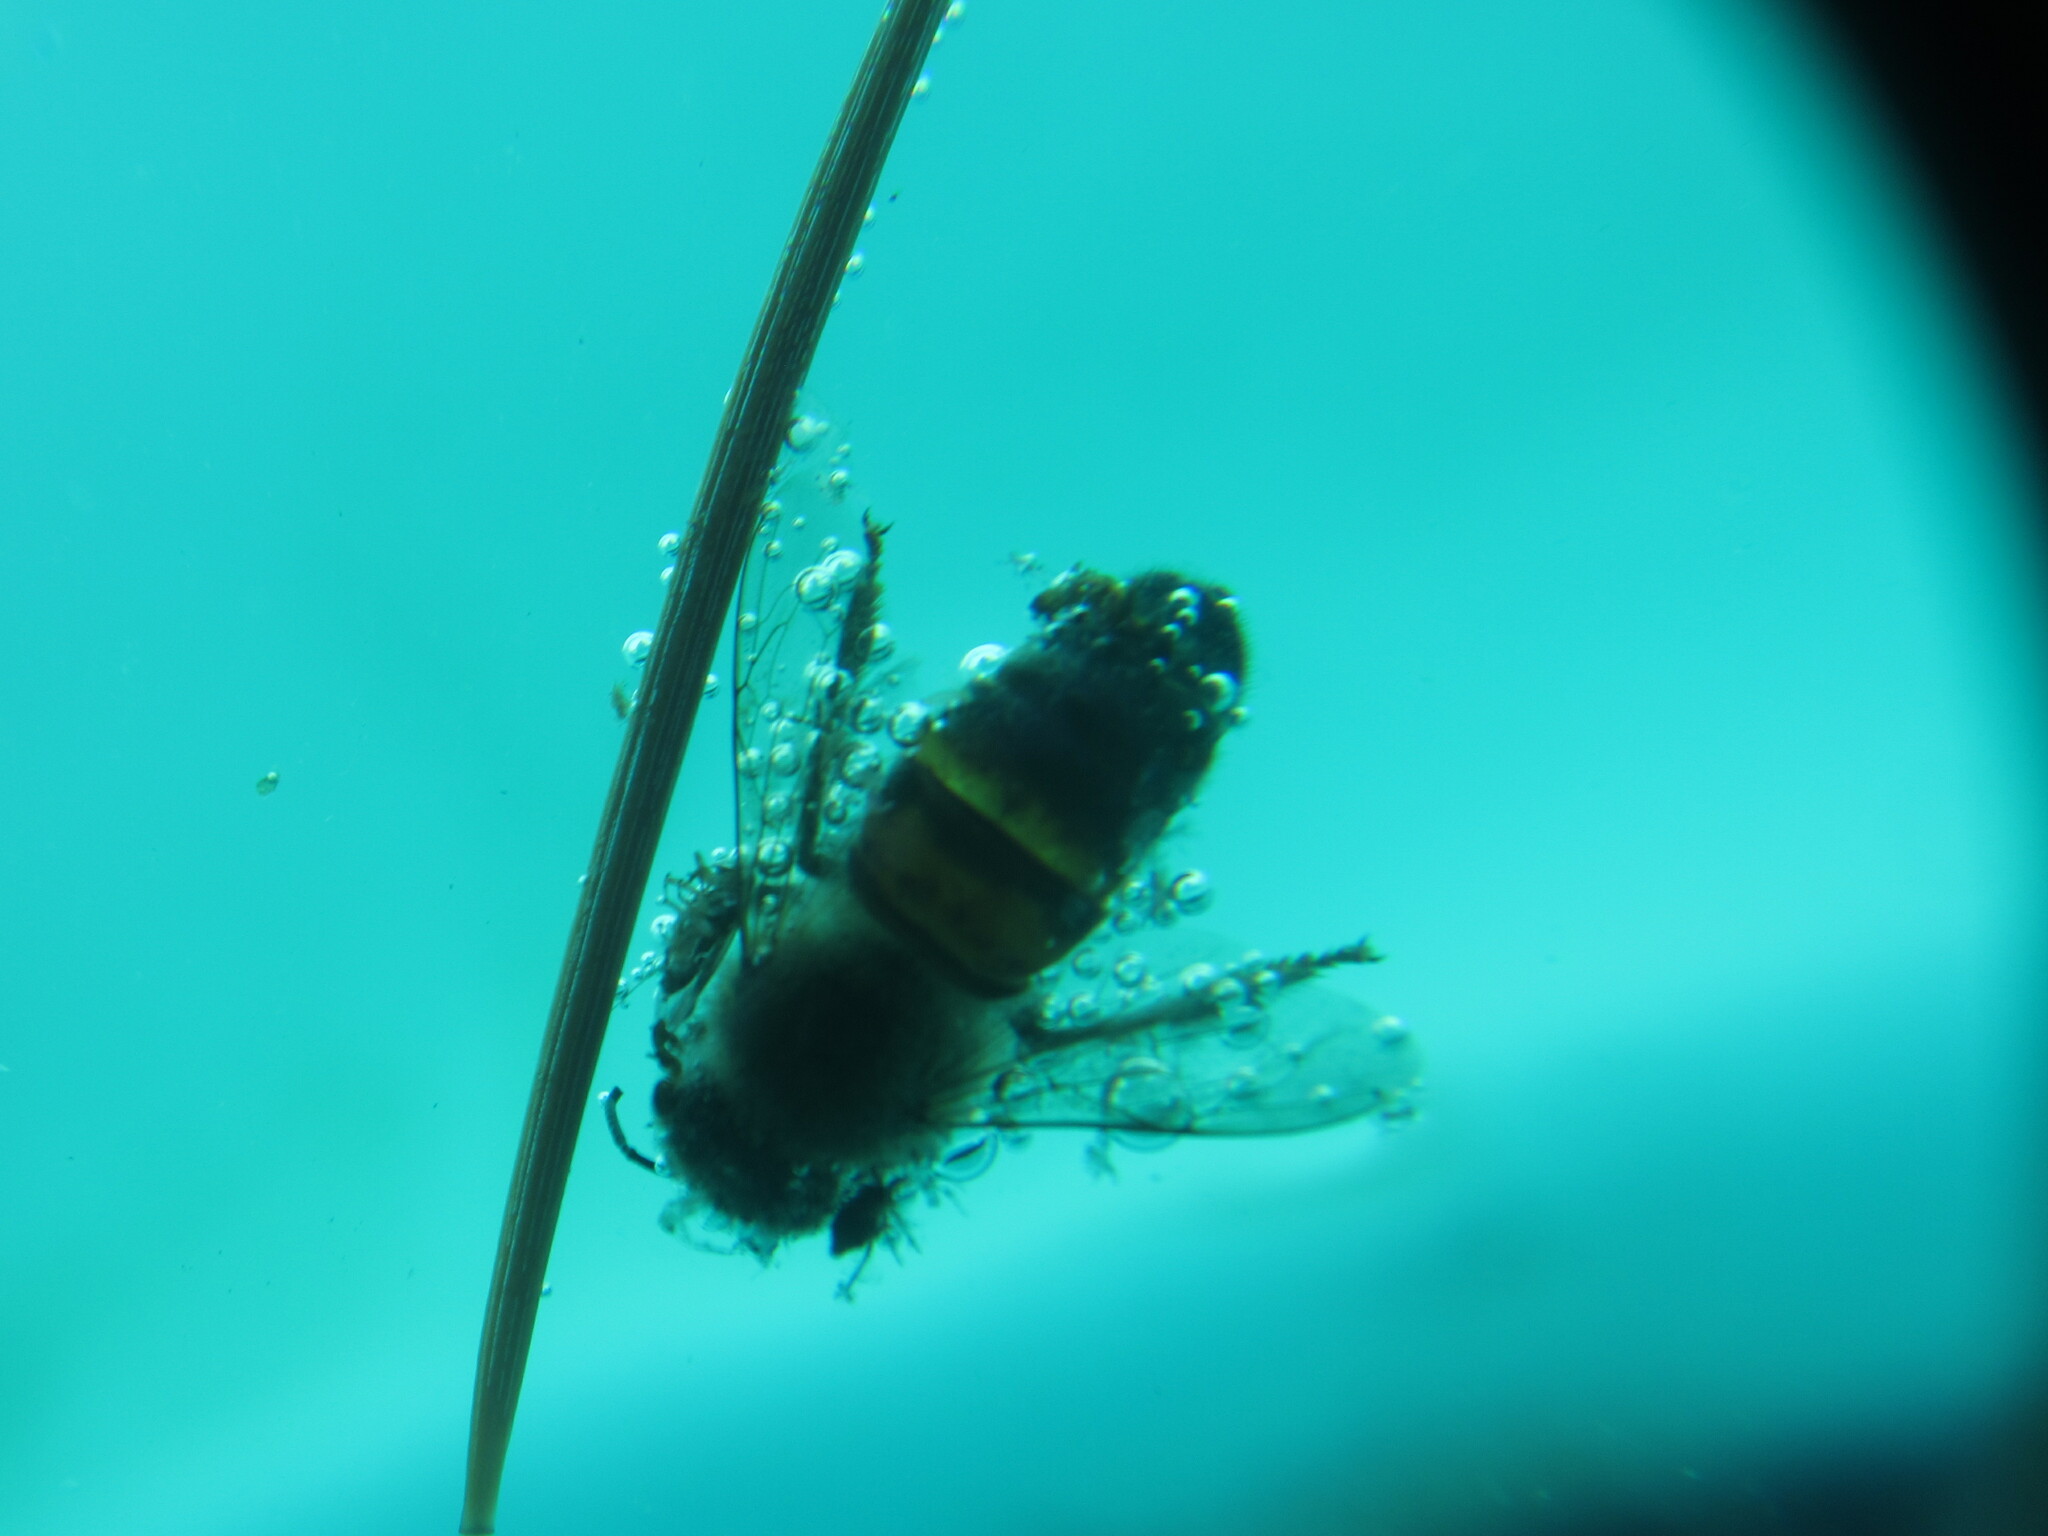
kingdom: Animalia
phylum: Arthropoda
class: Insecta
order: Hymenoptera
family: Apidae
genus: Apis
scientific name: Apis mellifera
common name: Honey bee
